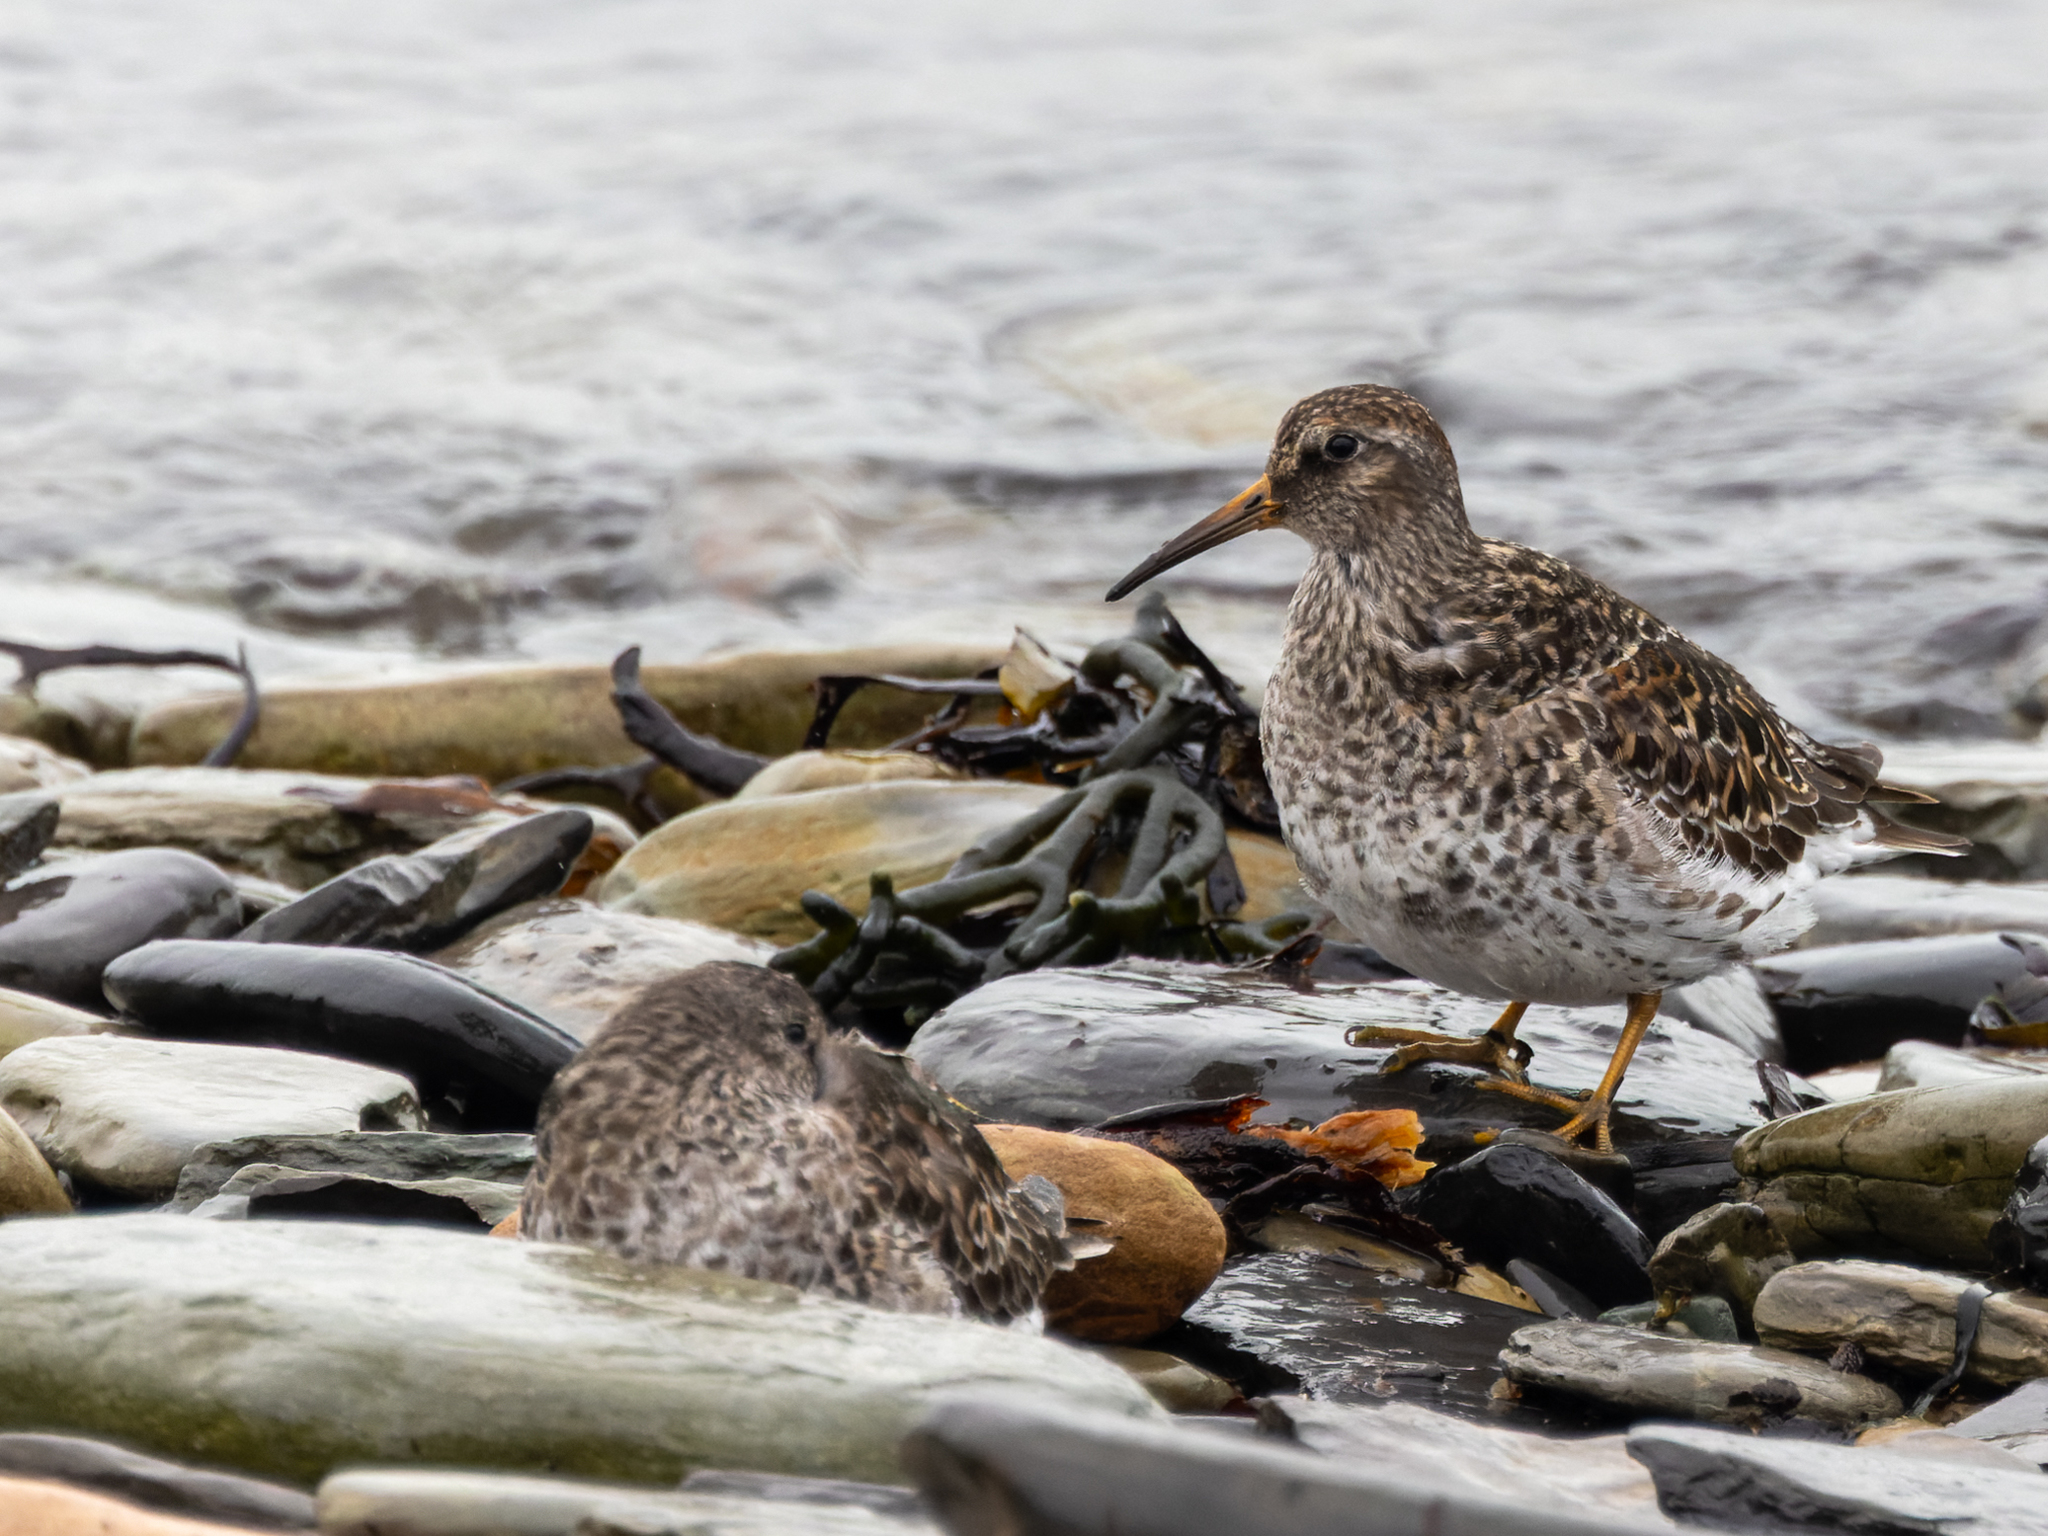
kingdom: Animalia
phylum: Chordata
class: Aves
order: Charadriiformes
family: Scolopacidae
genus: Calidris
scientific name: Calidris maritima
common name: Purple sandpiper
